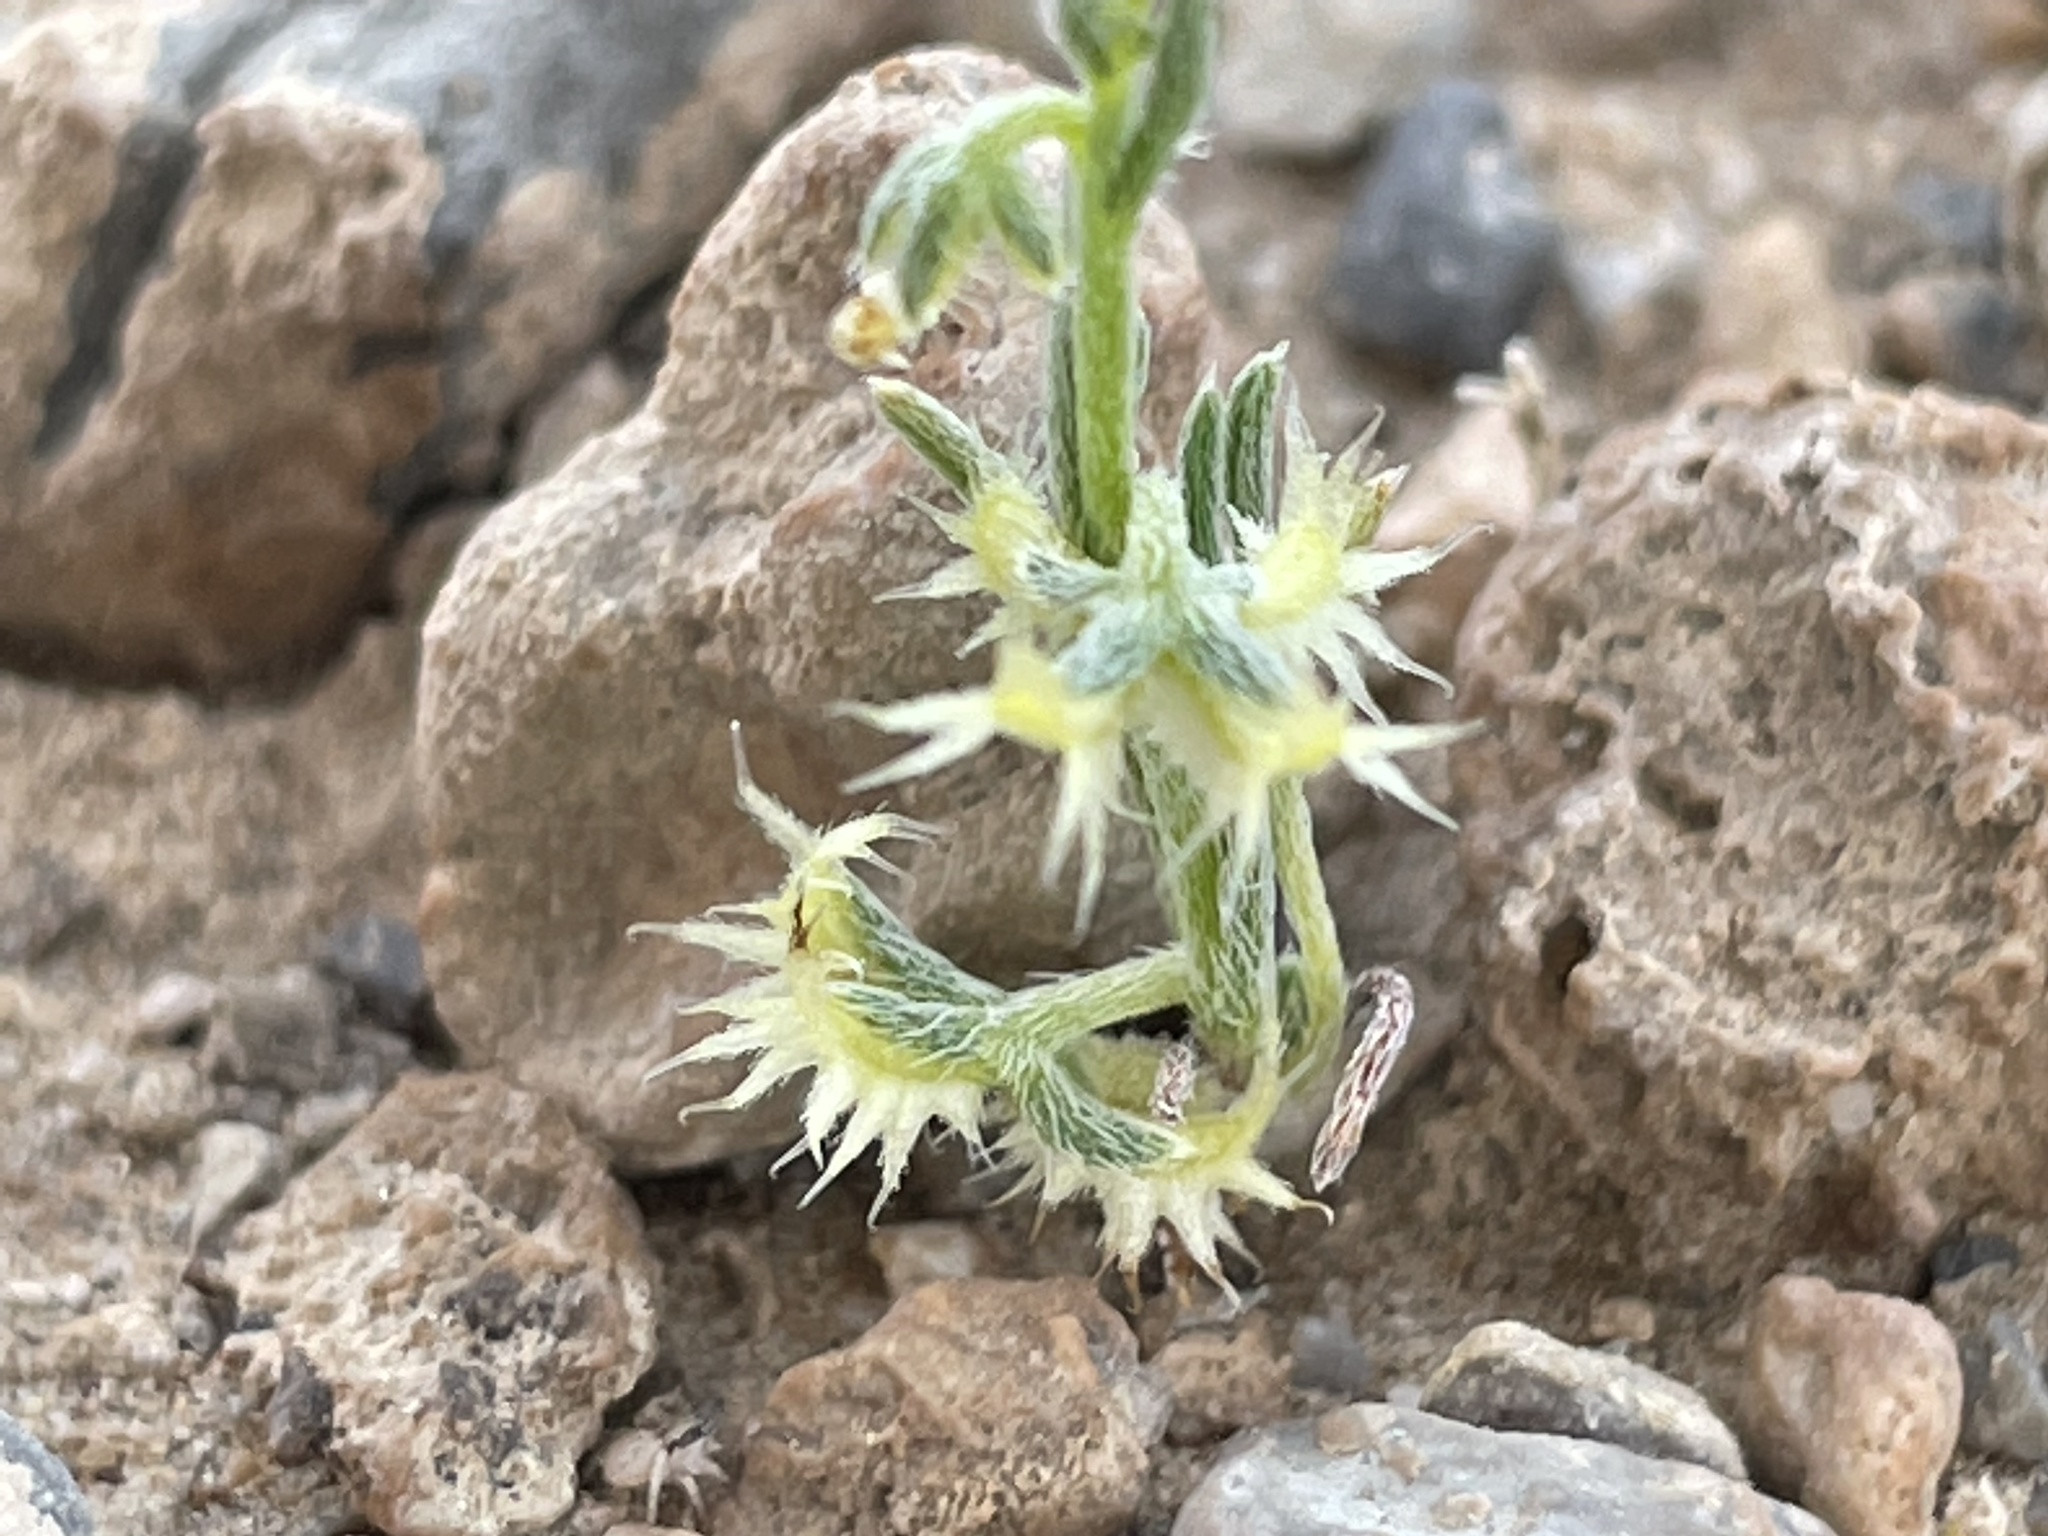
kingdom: Plantae
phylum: Tracheophyta
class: Magnoliopsida
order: Boraginales
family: Boraginaceae
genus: Pectocarya
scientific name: Pectocarya platycarpa
